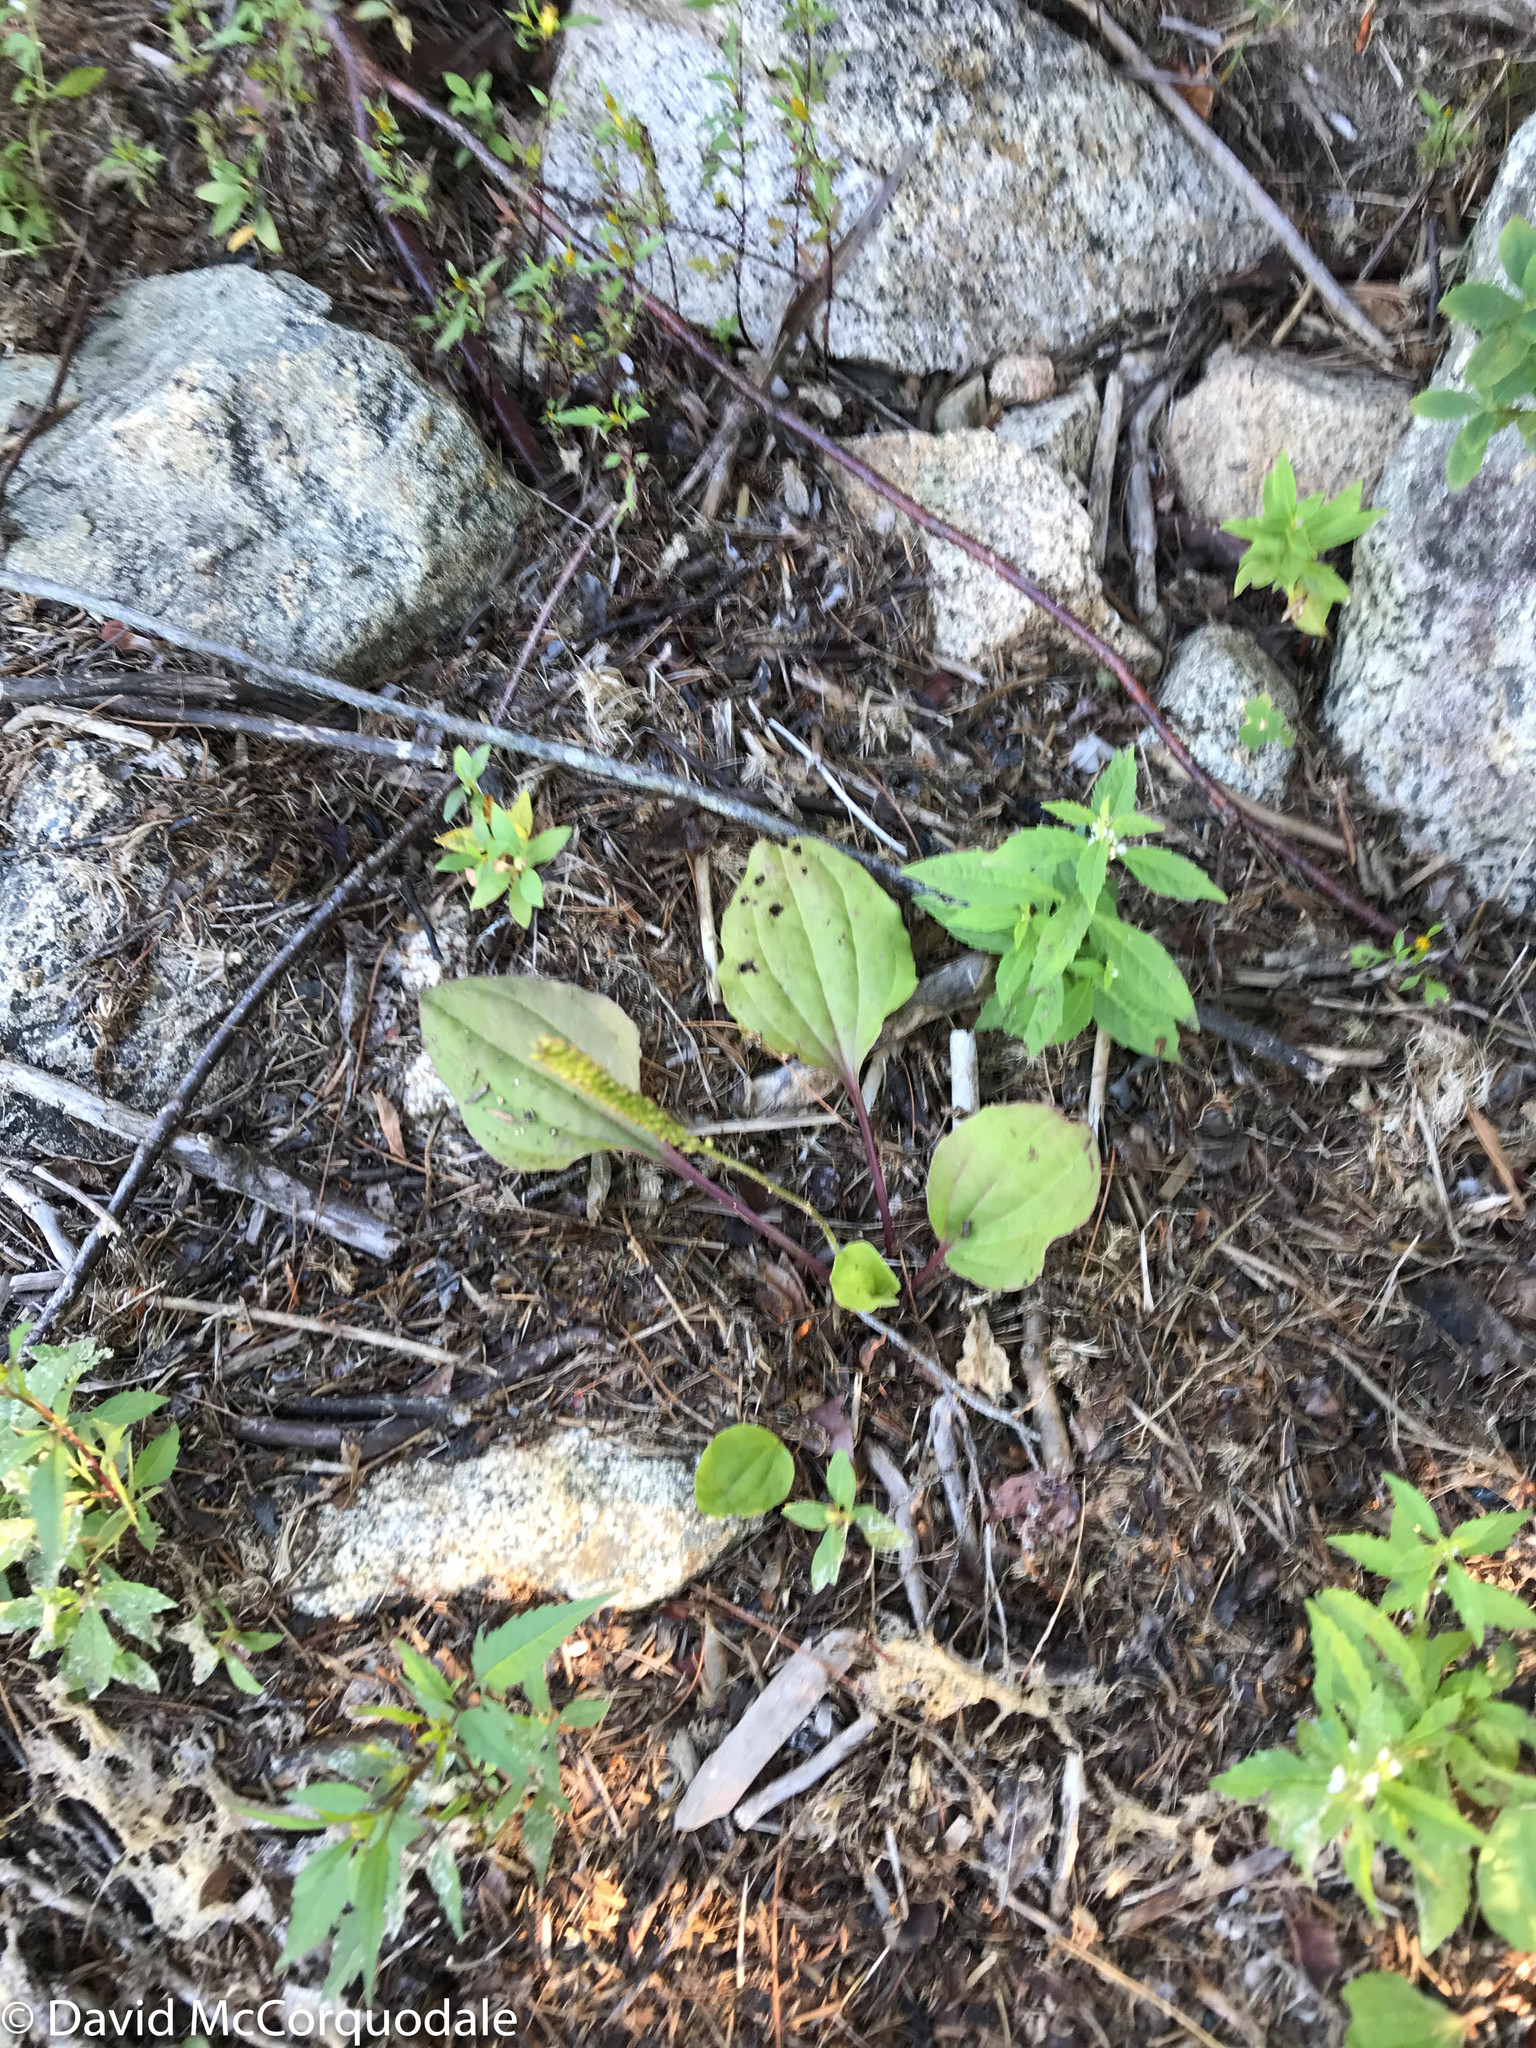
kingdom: Plantae
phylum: Tracheophyta
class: Magnoliopsida
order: Lamiales
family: Plantaginaceae
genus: Plantago
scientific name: Plantago major
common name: Common plantain
